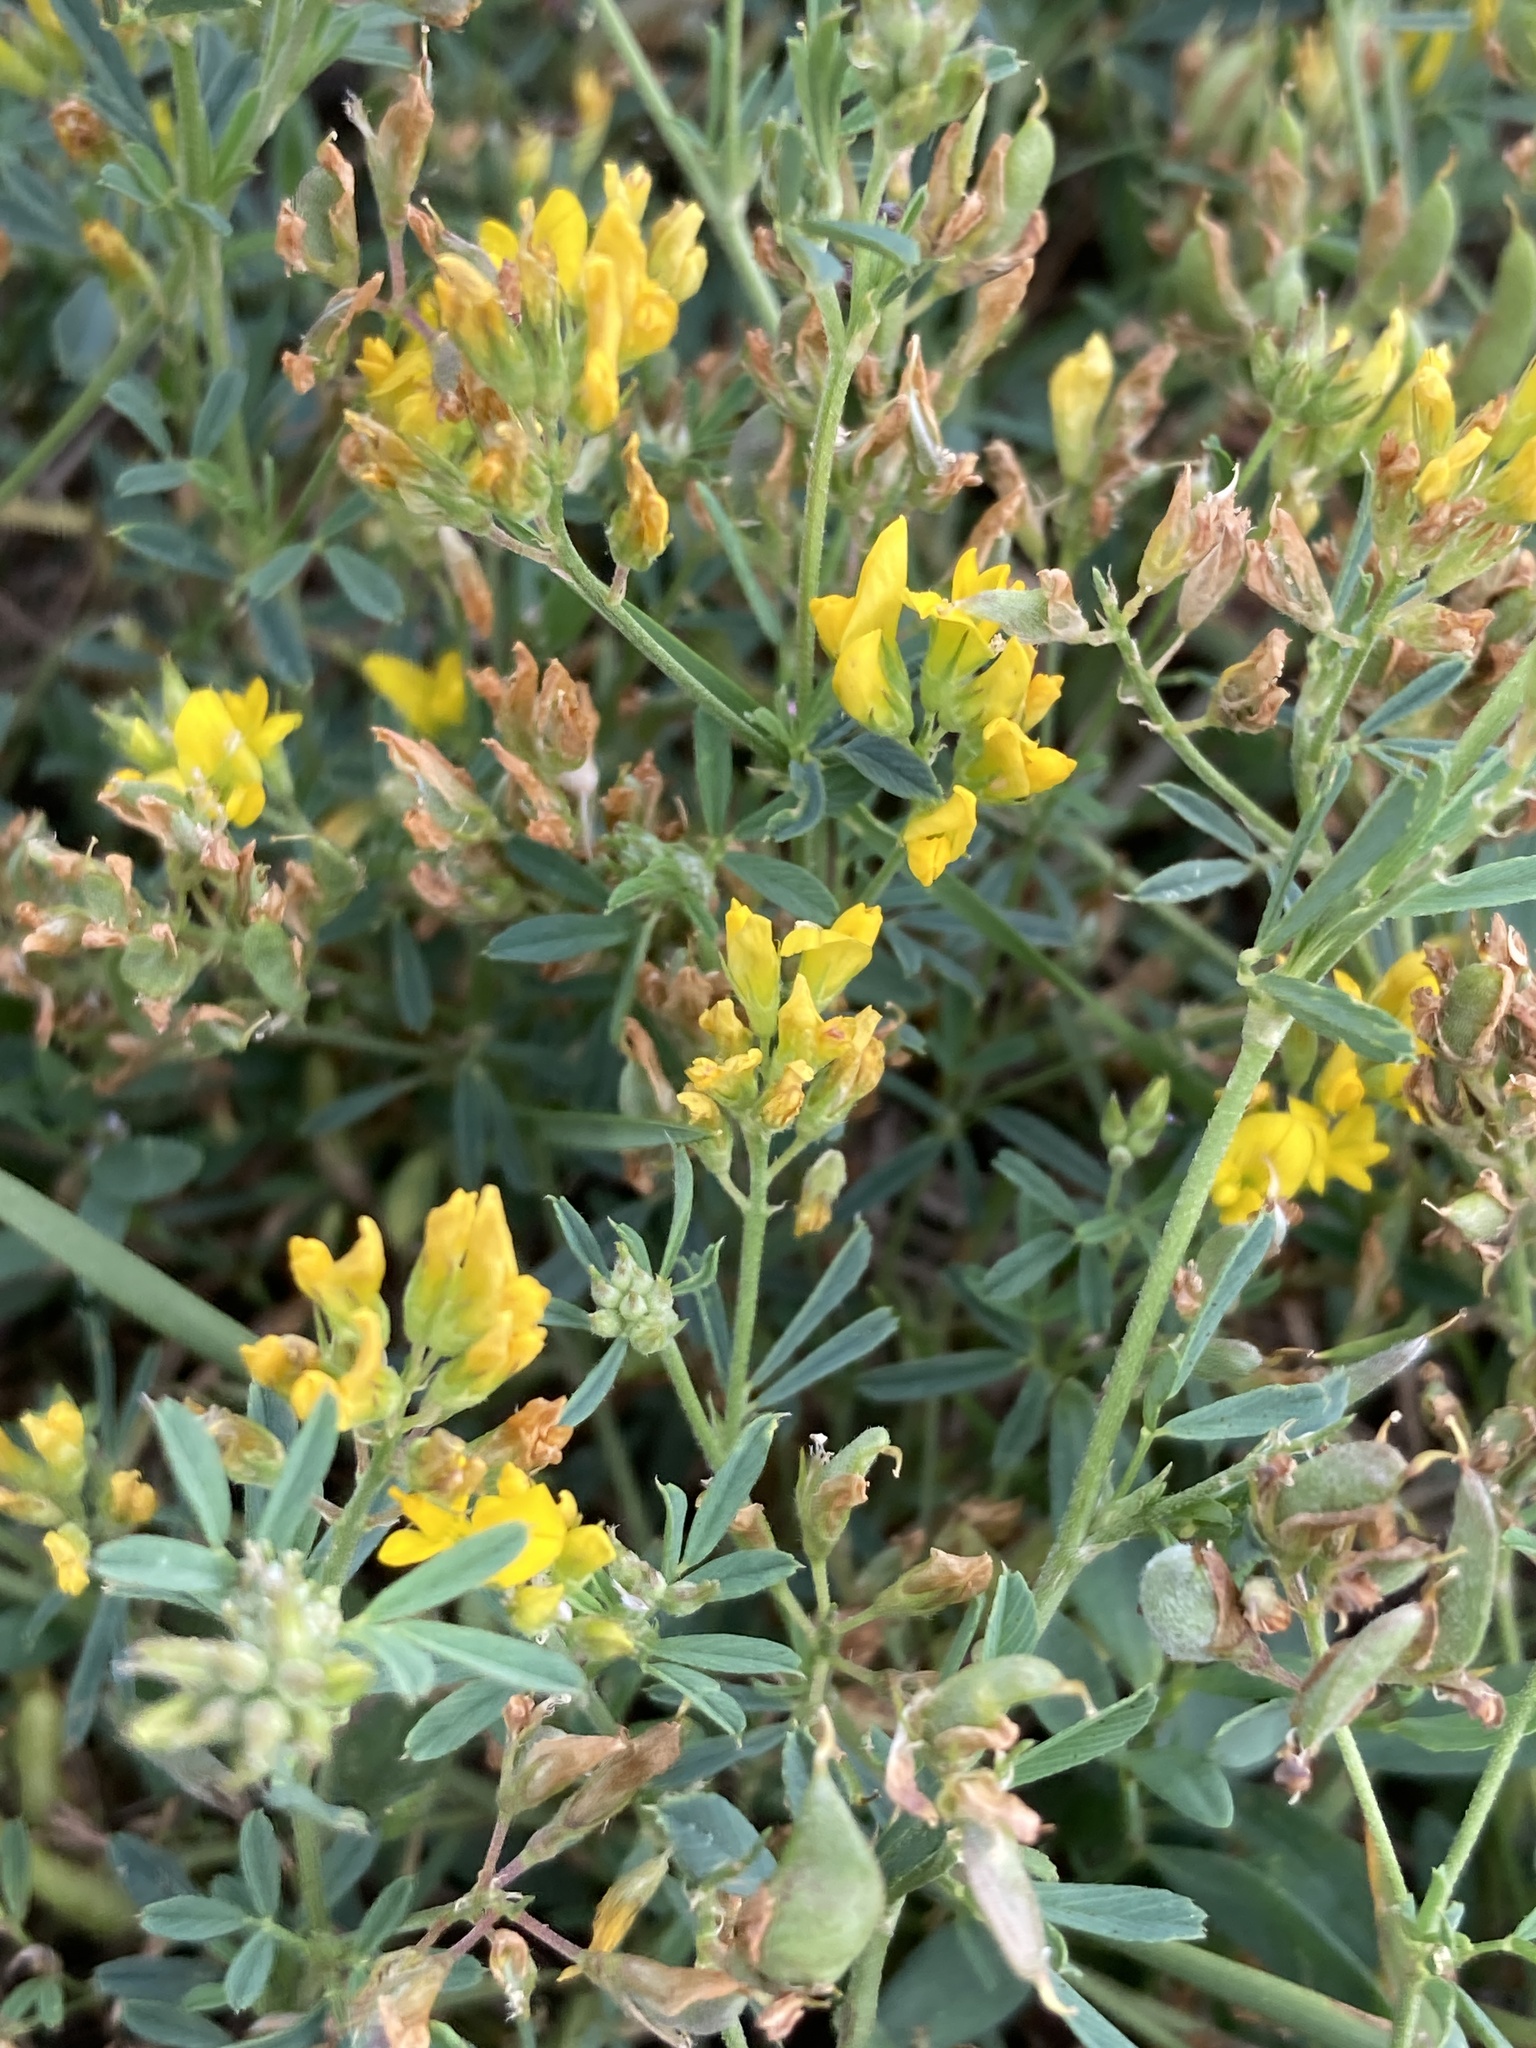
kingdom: Plantae
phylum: Tracheophyta
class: Magnoliopsida
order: Fabales
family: Fabaceae
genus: Medicago
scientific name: Medicago falcata
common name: Sickle medick
